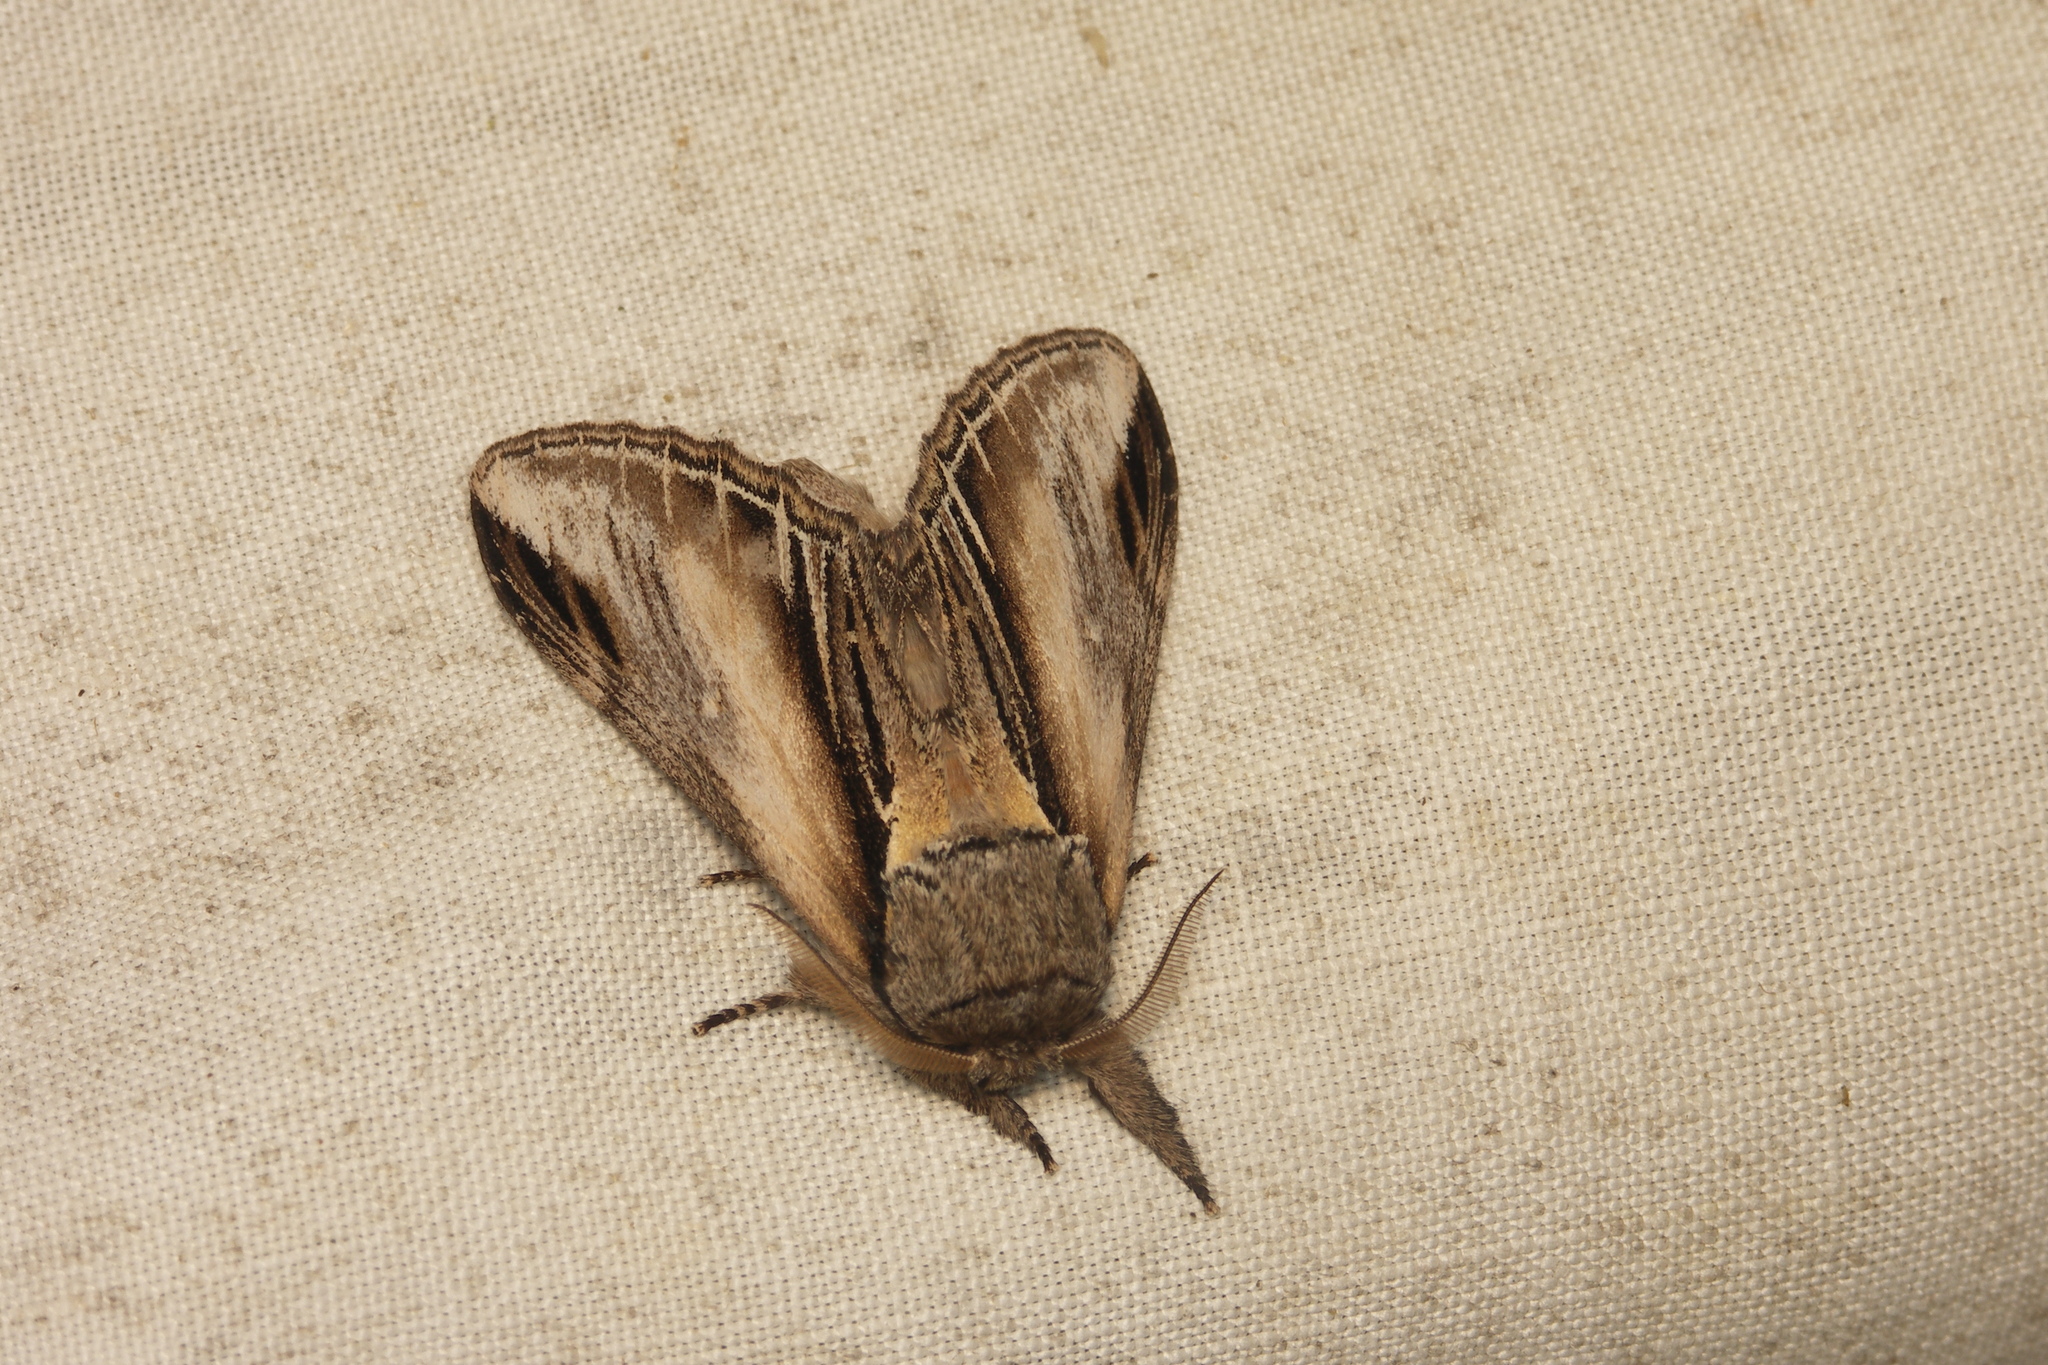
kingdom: Animalia
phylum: Arthropoda
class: Insecta
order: Lepidoptera
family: Notodontidae
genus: Pheosia
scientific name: Pheosia tremula
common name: Swallow prominent
